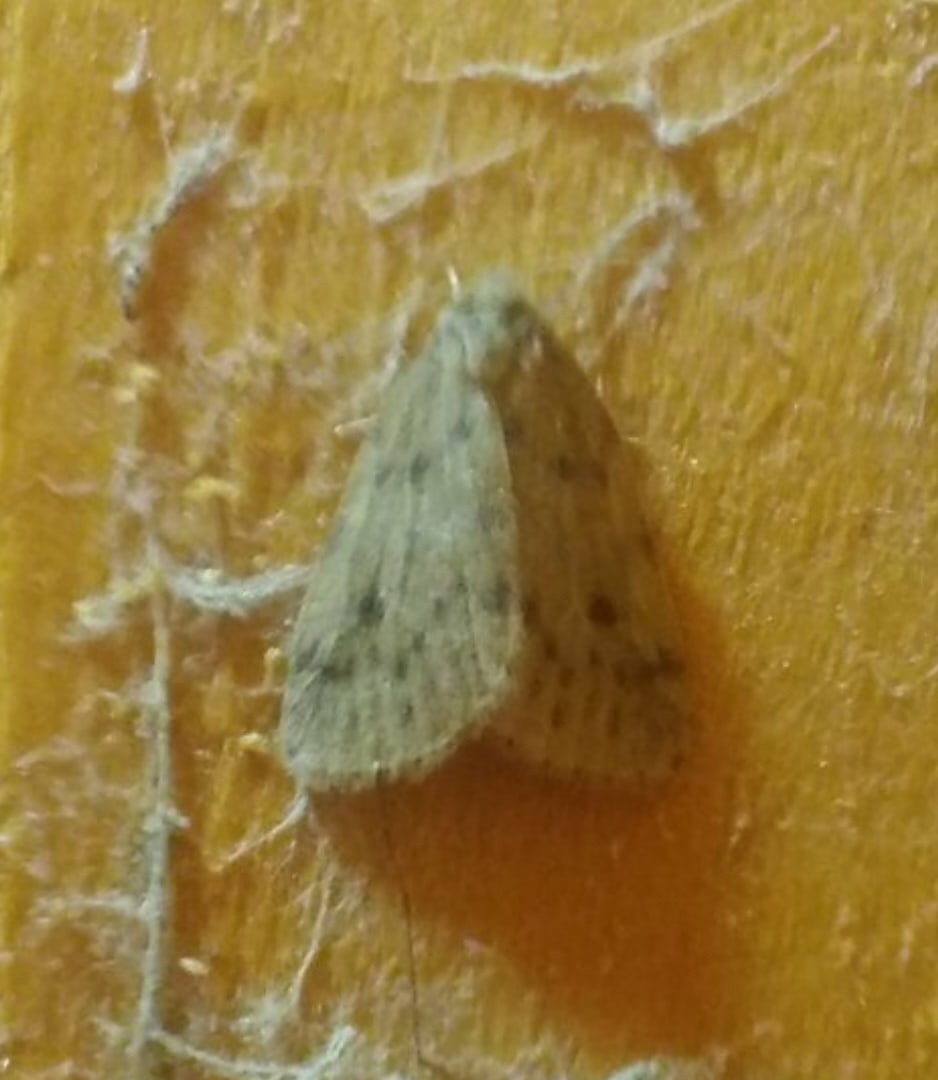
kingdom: Animalia
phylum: Arthropoda
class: Insecta
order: Lepidoptera
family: Erebidae
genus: Thumatha
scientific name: Thumatha senex
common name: Round-winged muslin
